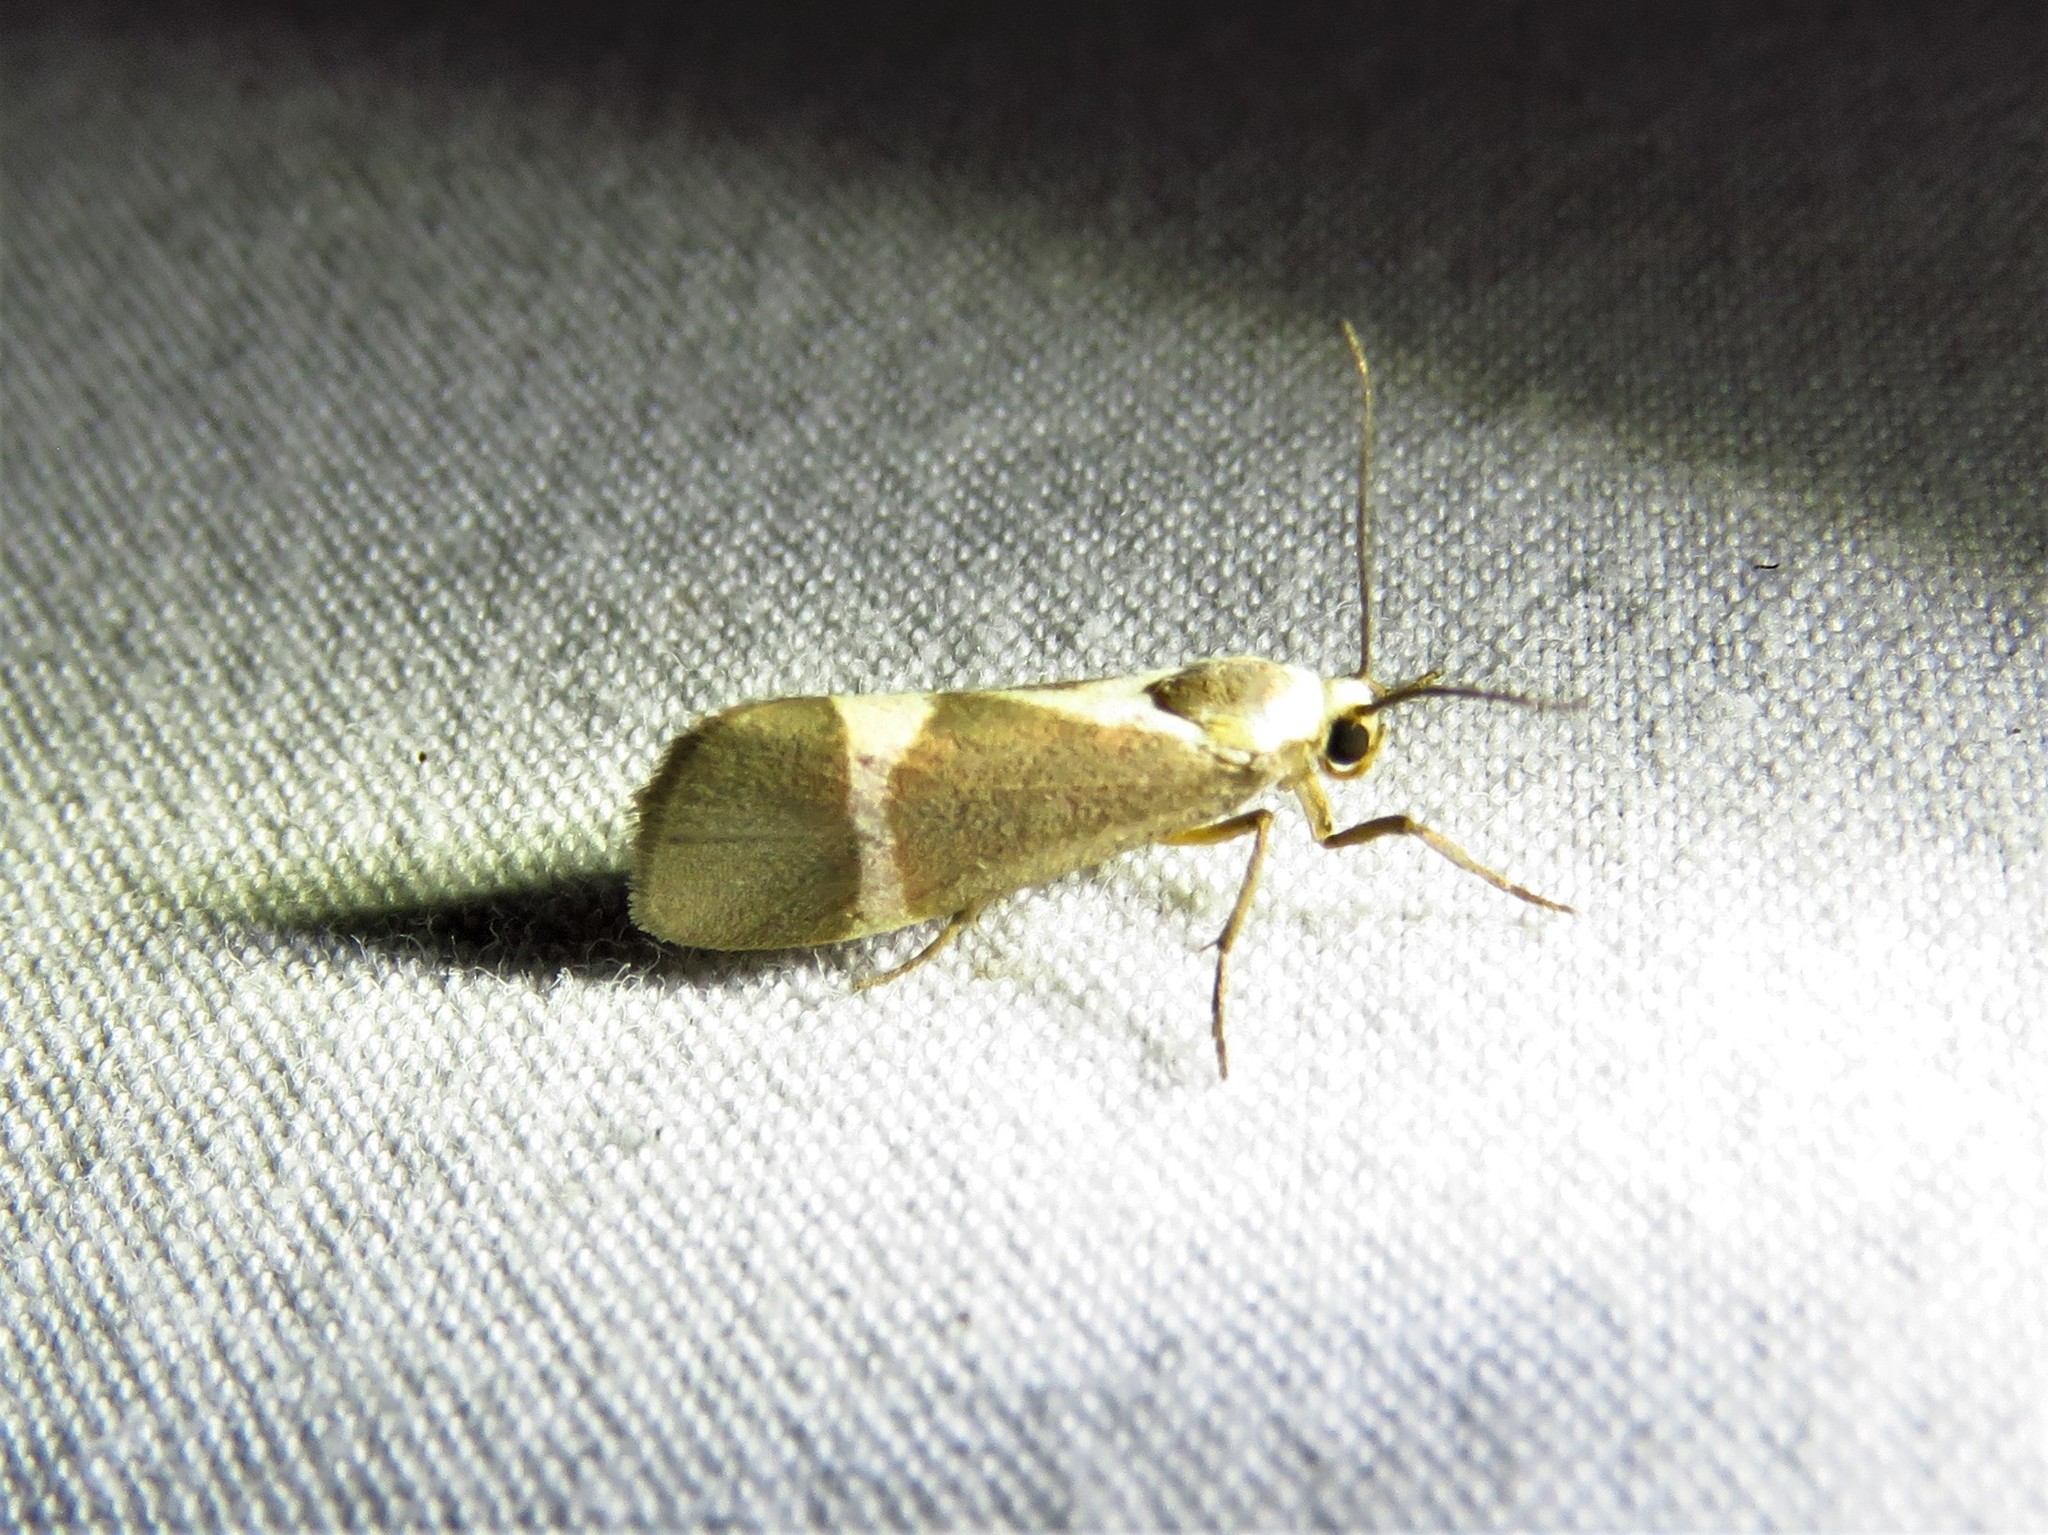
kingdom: Animalia
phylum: Arthropoda
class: Insecta
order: Lepidoptera
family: Erebidae
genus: Cisthene
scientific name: Cisthene tenuifascia
